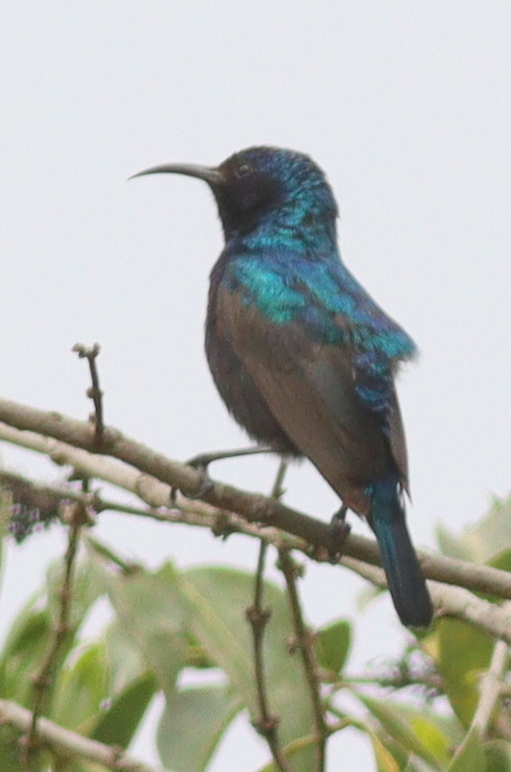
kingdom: Animalia
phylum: Chordata
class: Aves
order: Passeriformes
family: Nectariniidae
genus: Cinnyris
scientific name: Cinnyris osea
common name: Palestine sunbird
